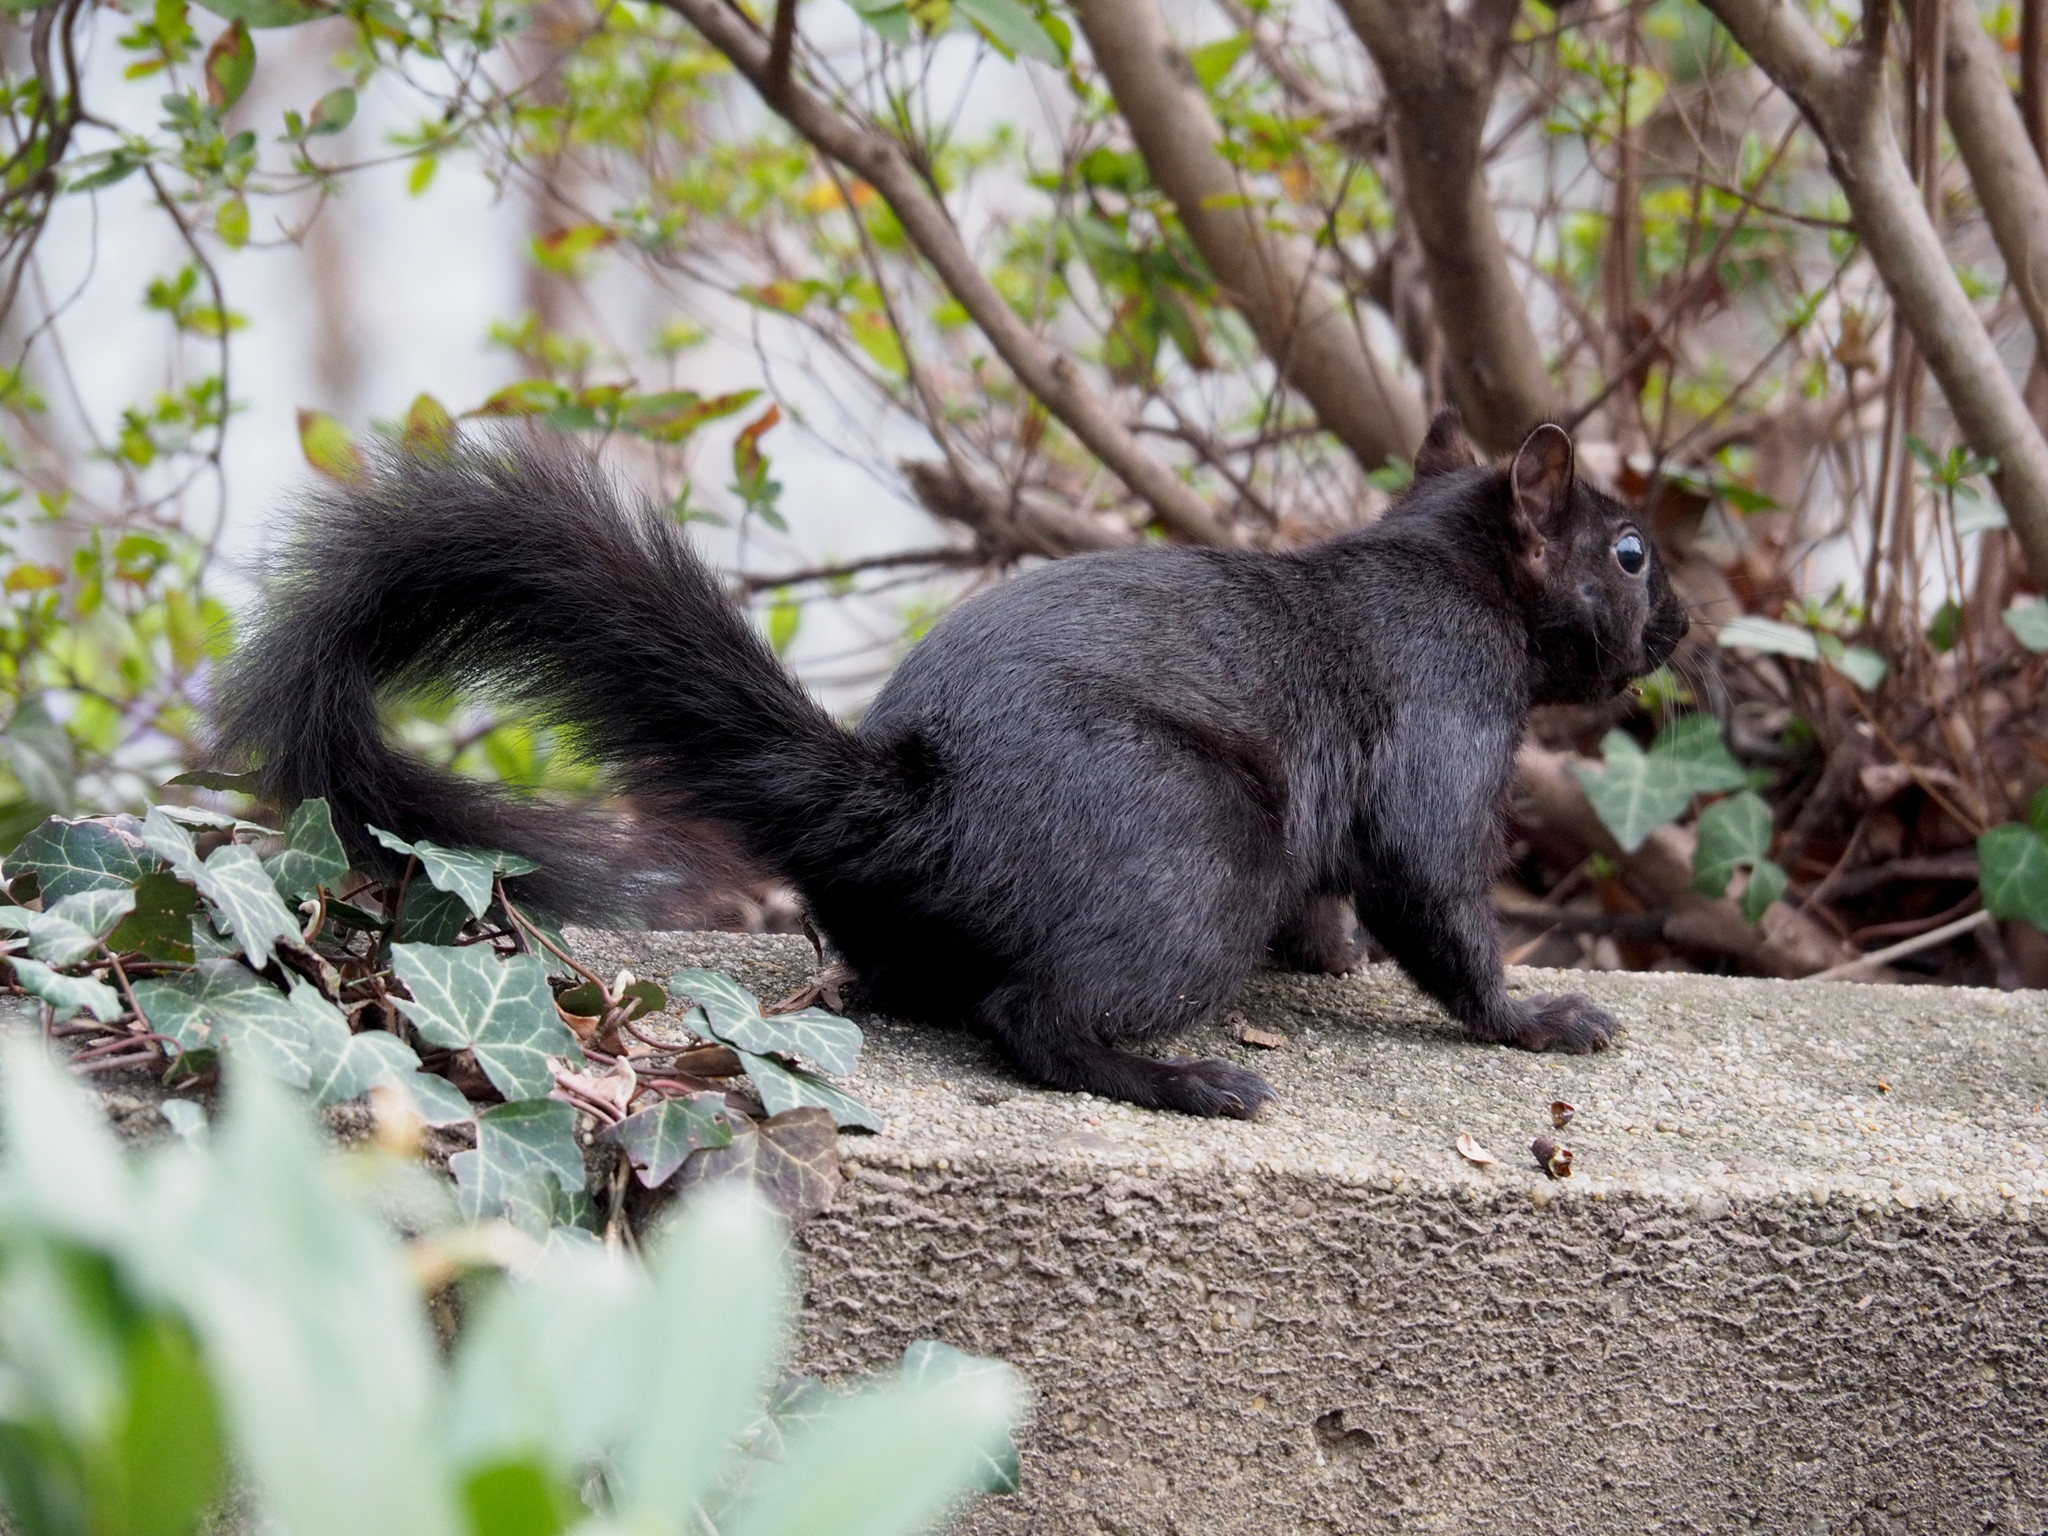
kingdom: Animalia
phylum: Chordata
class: Mammalia
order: Rodentia
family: Sciuridae
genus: Sciurus
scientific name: Sciurus carolinensis
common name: Eastern gray squirrel
